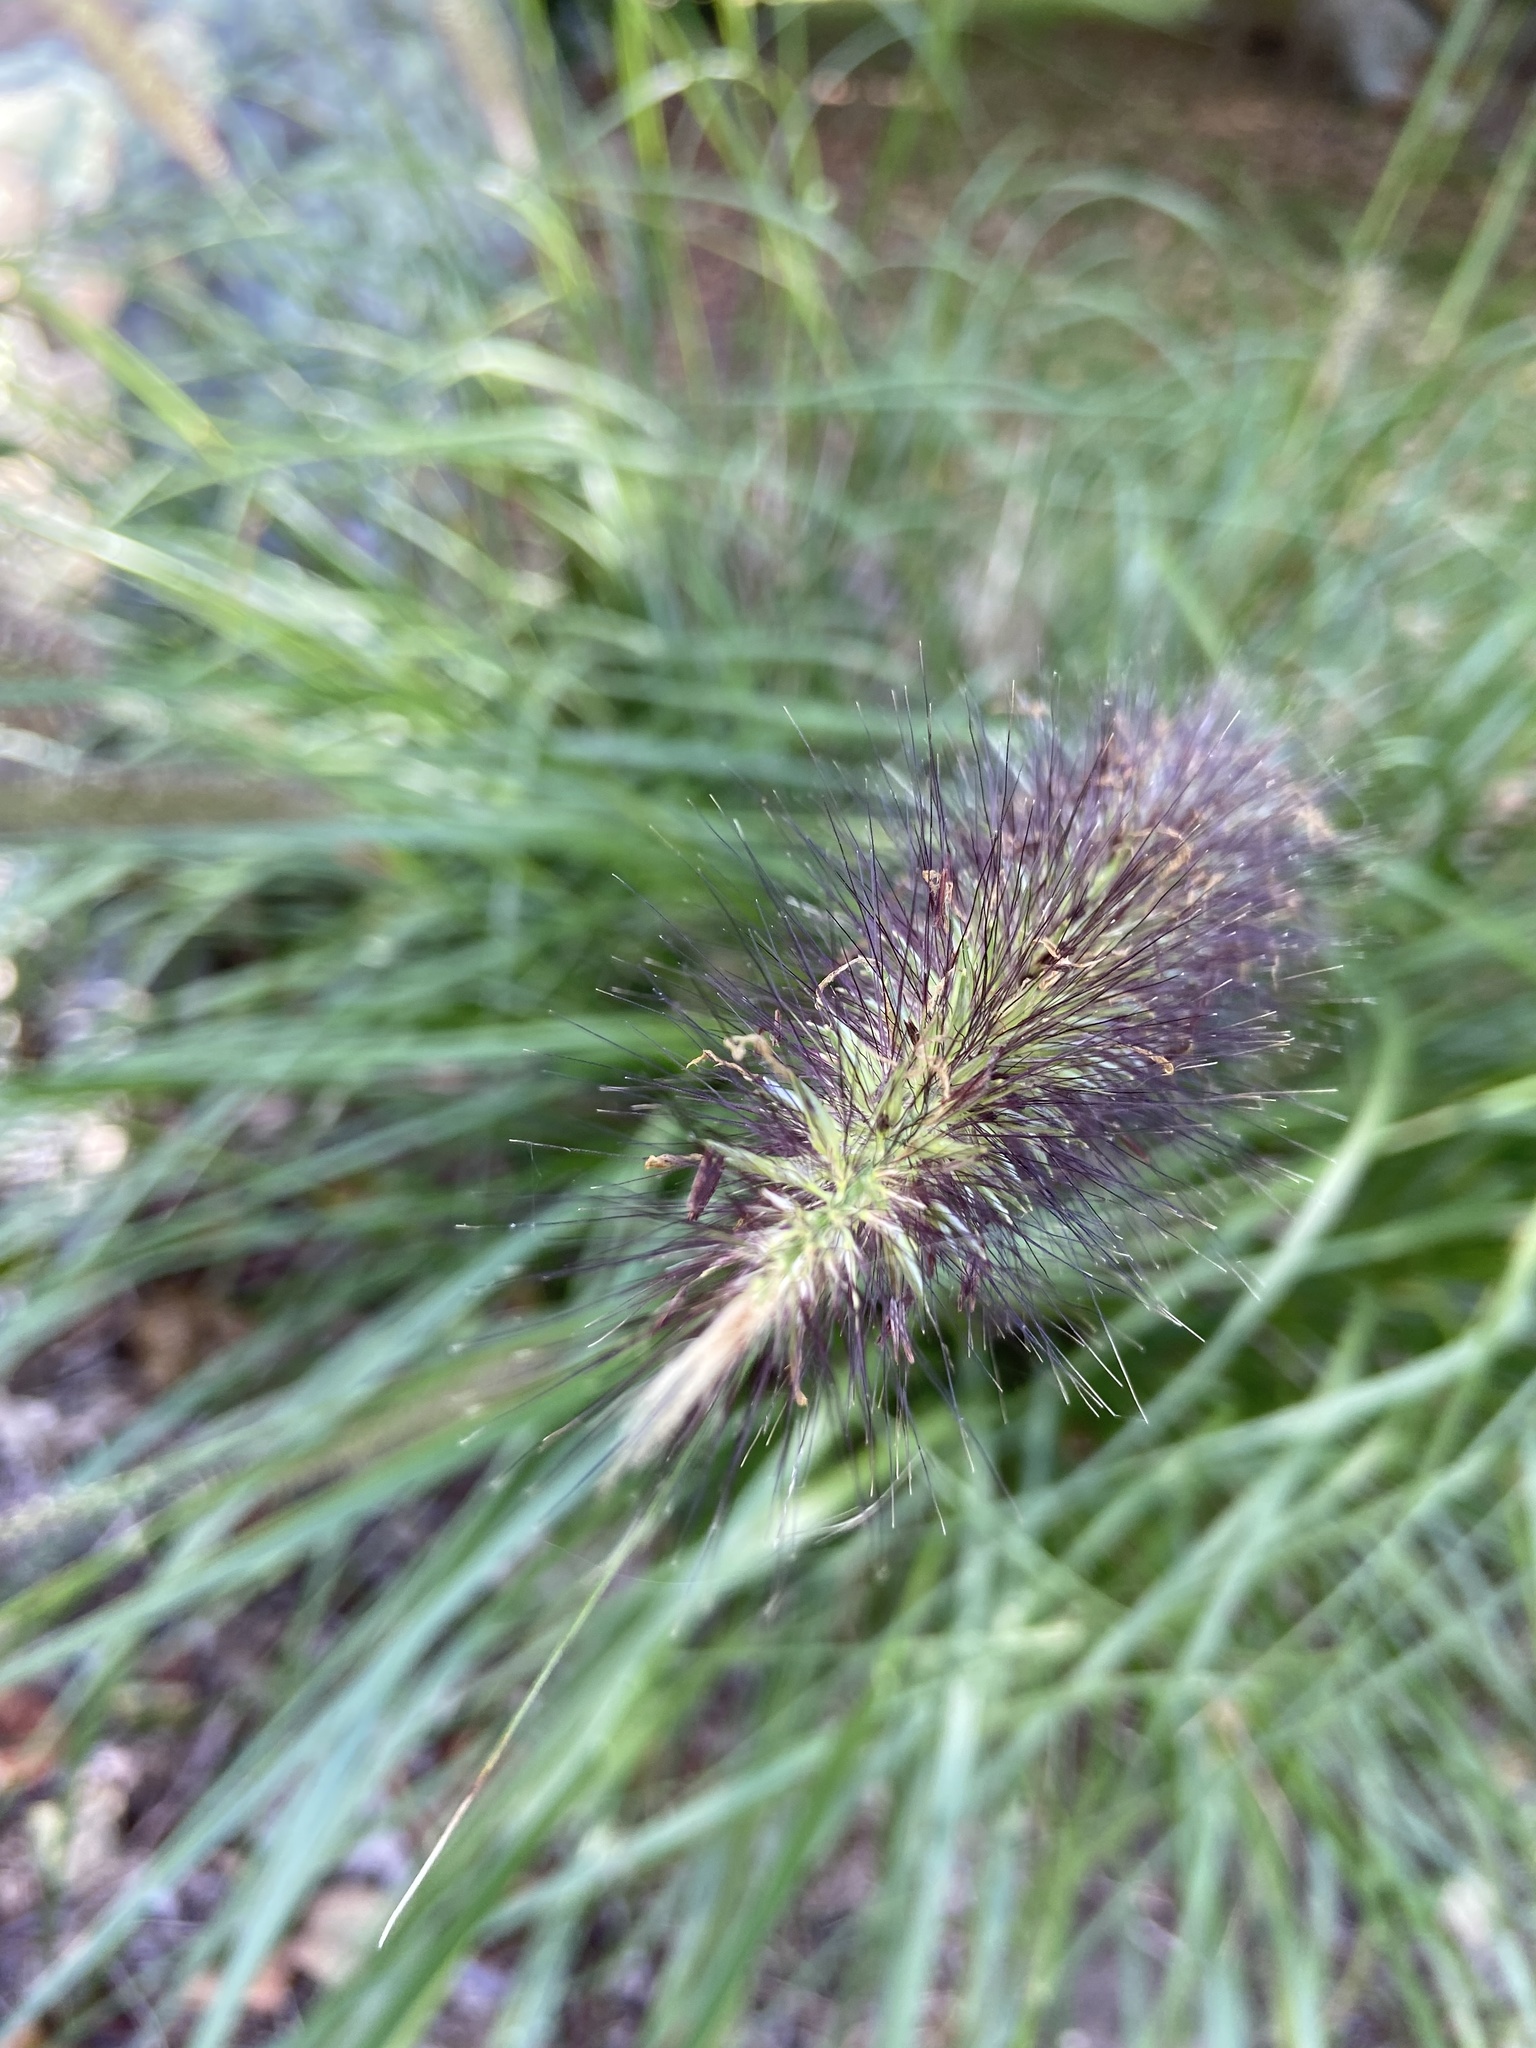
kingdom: Plantae
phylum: Tracheophyta
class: Liliopsida
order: Poales
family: Poaceae
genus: Cenchrus
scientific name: Cenchrus alopecuroides
